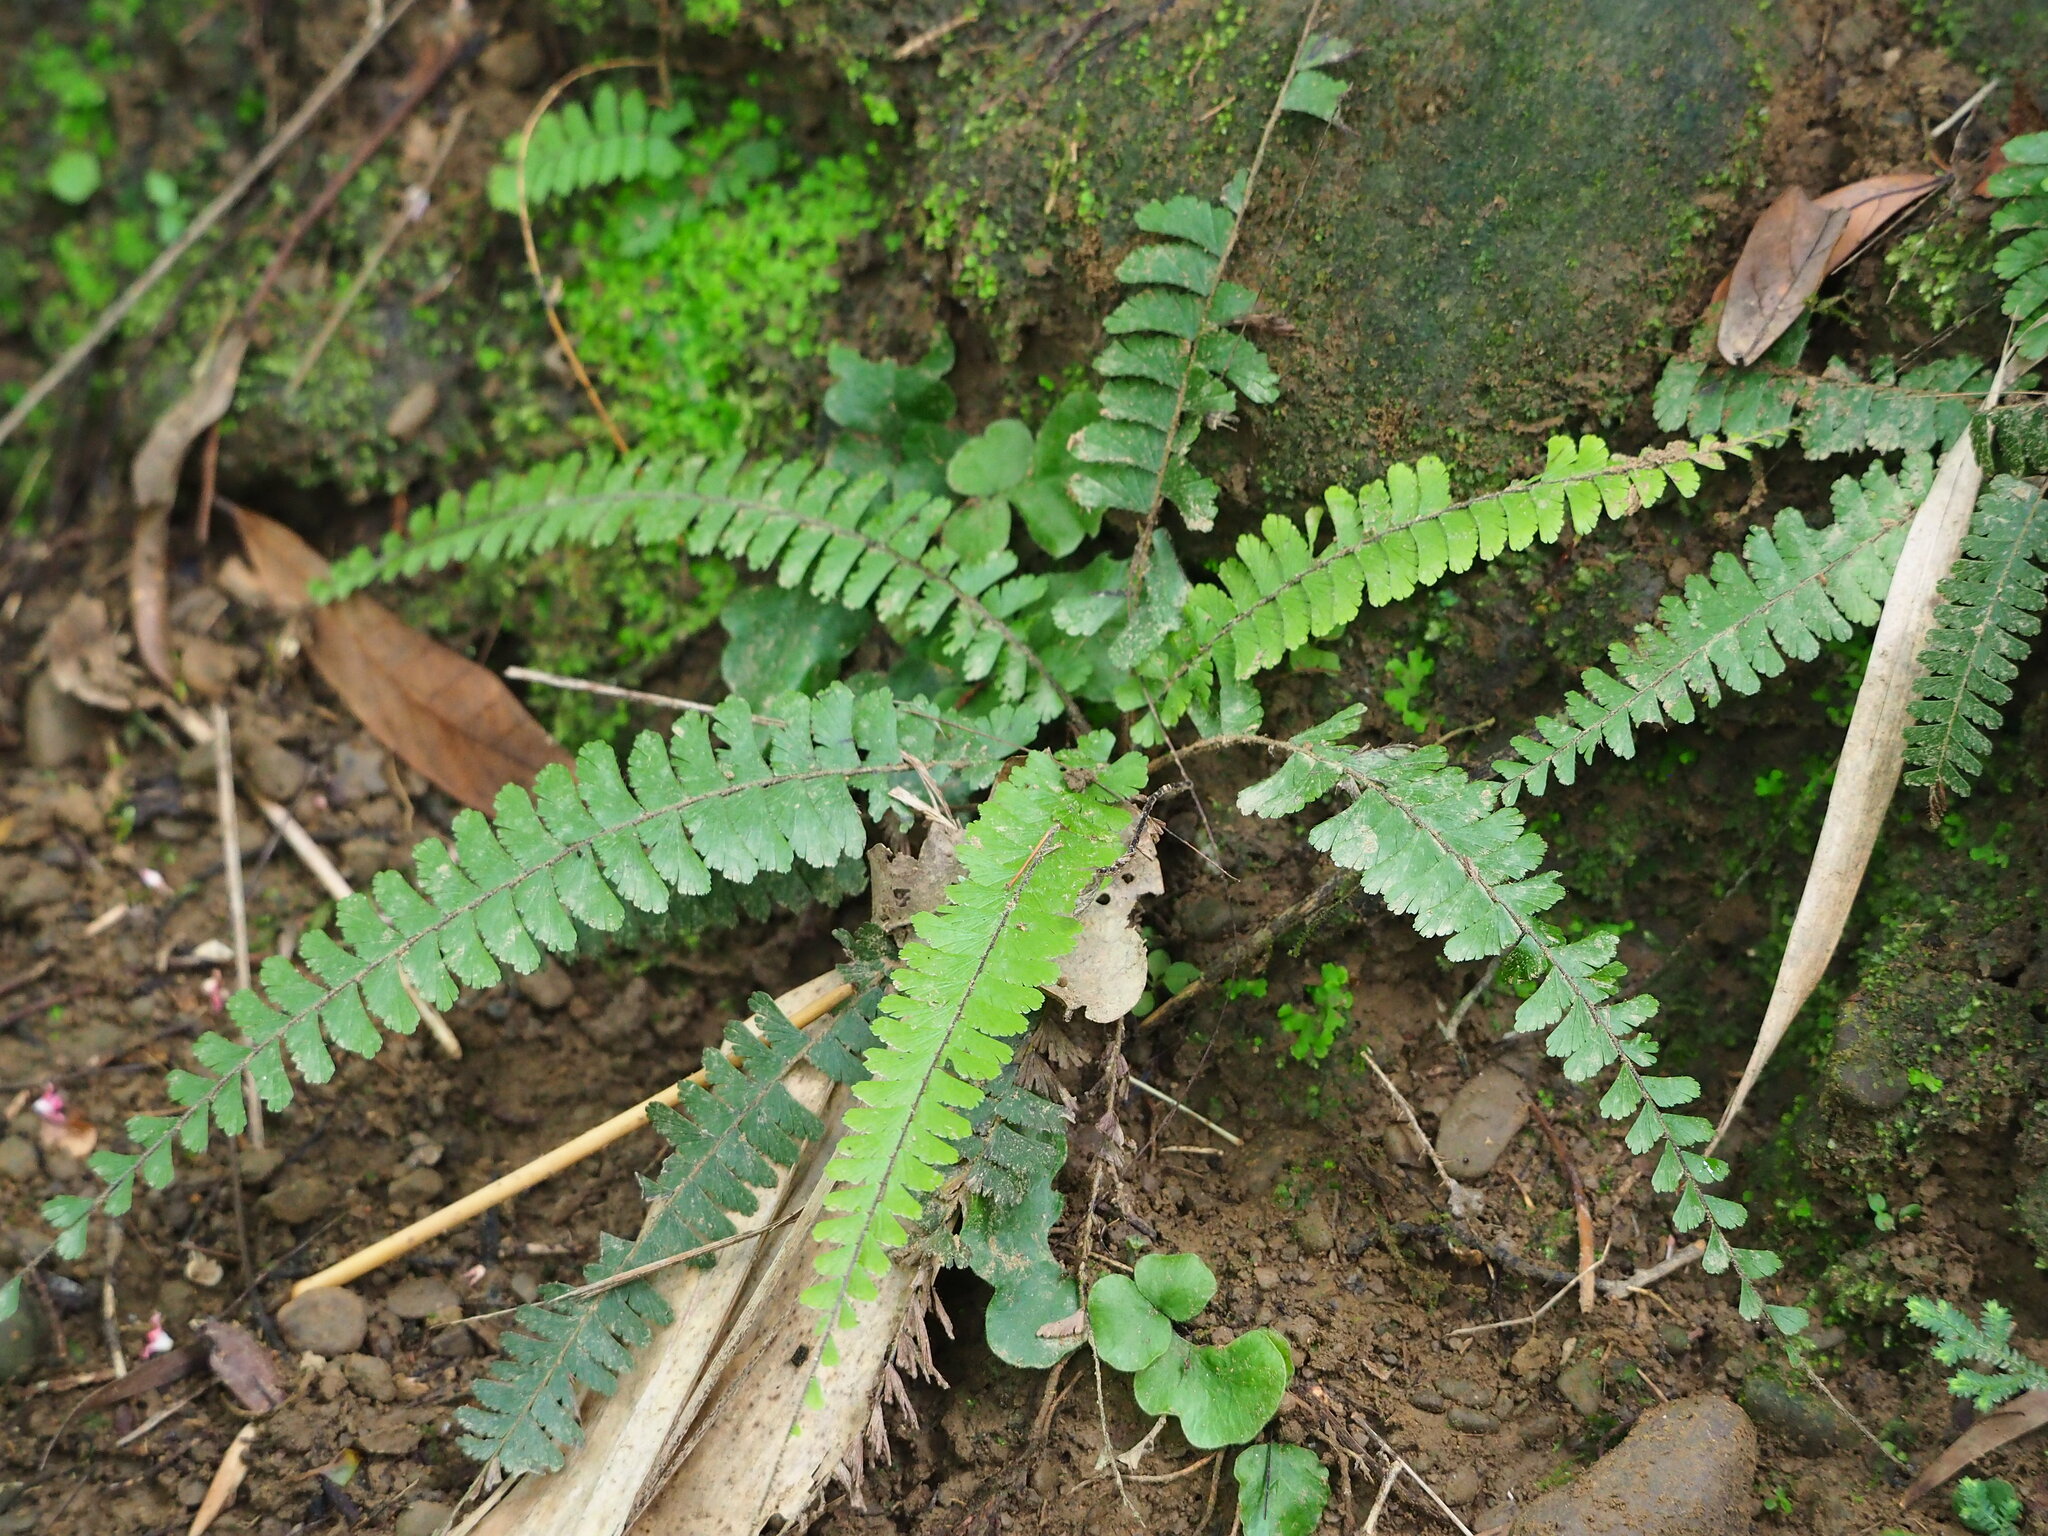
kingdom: Plantae
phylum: Tracheophyta
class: Polypodiopsida
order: Polypodiales
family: Pteridaceae
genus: Adiantum
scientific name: Adiantum caudatum
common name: Tailed maidenhair
